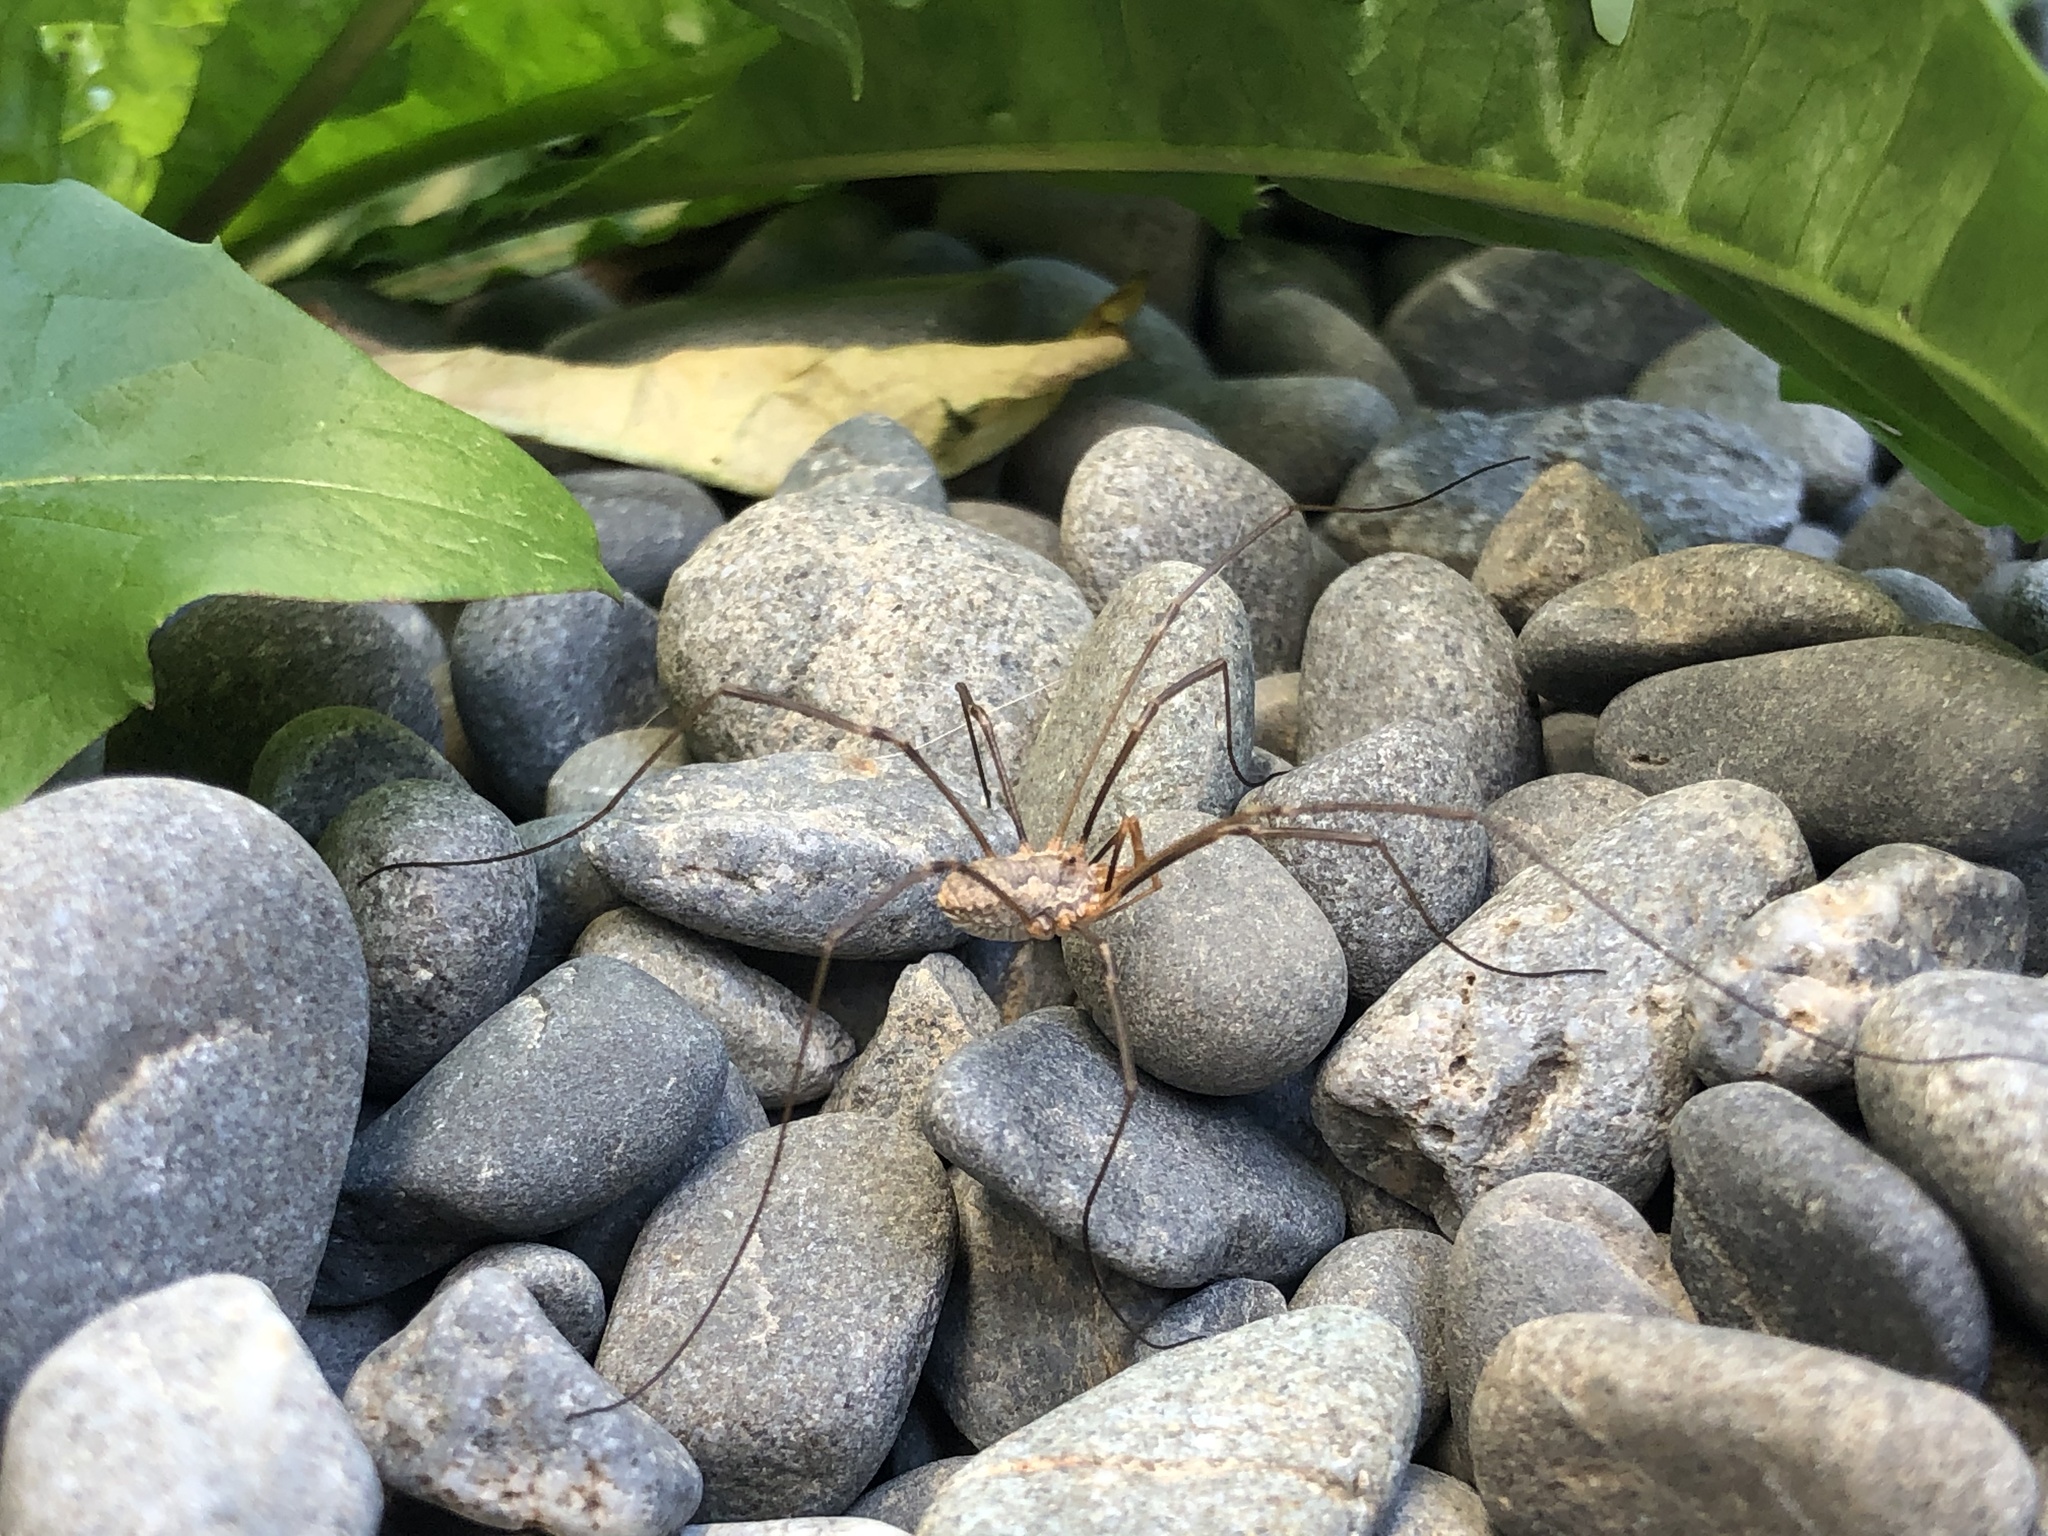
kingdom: Animalia
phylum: Arthropoda
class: Arachnida
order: Opiliones
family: Phalangiidae
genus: Phalangium
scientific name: Phalangium opilio
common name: Daddy longleg
